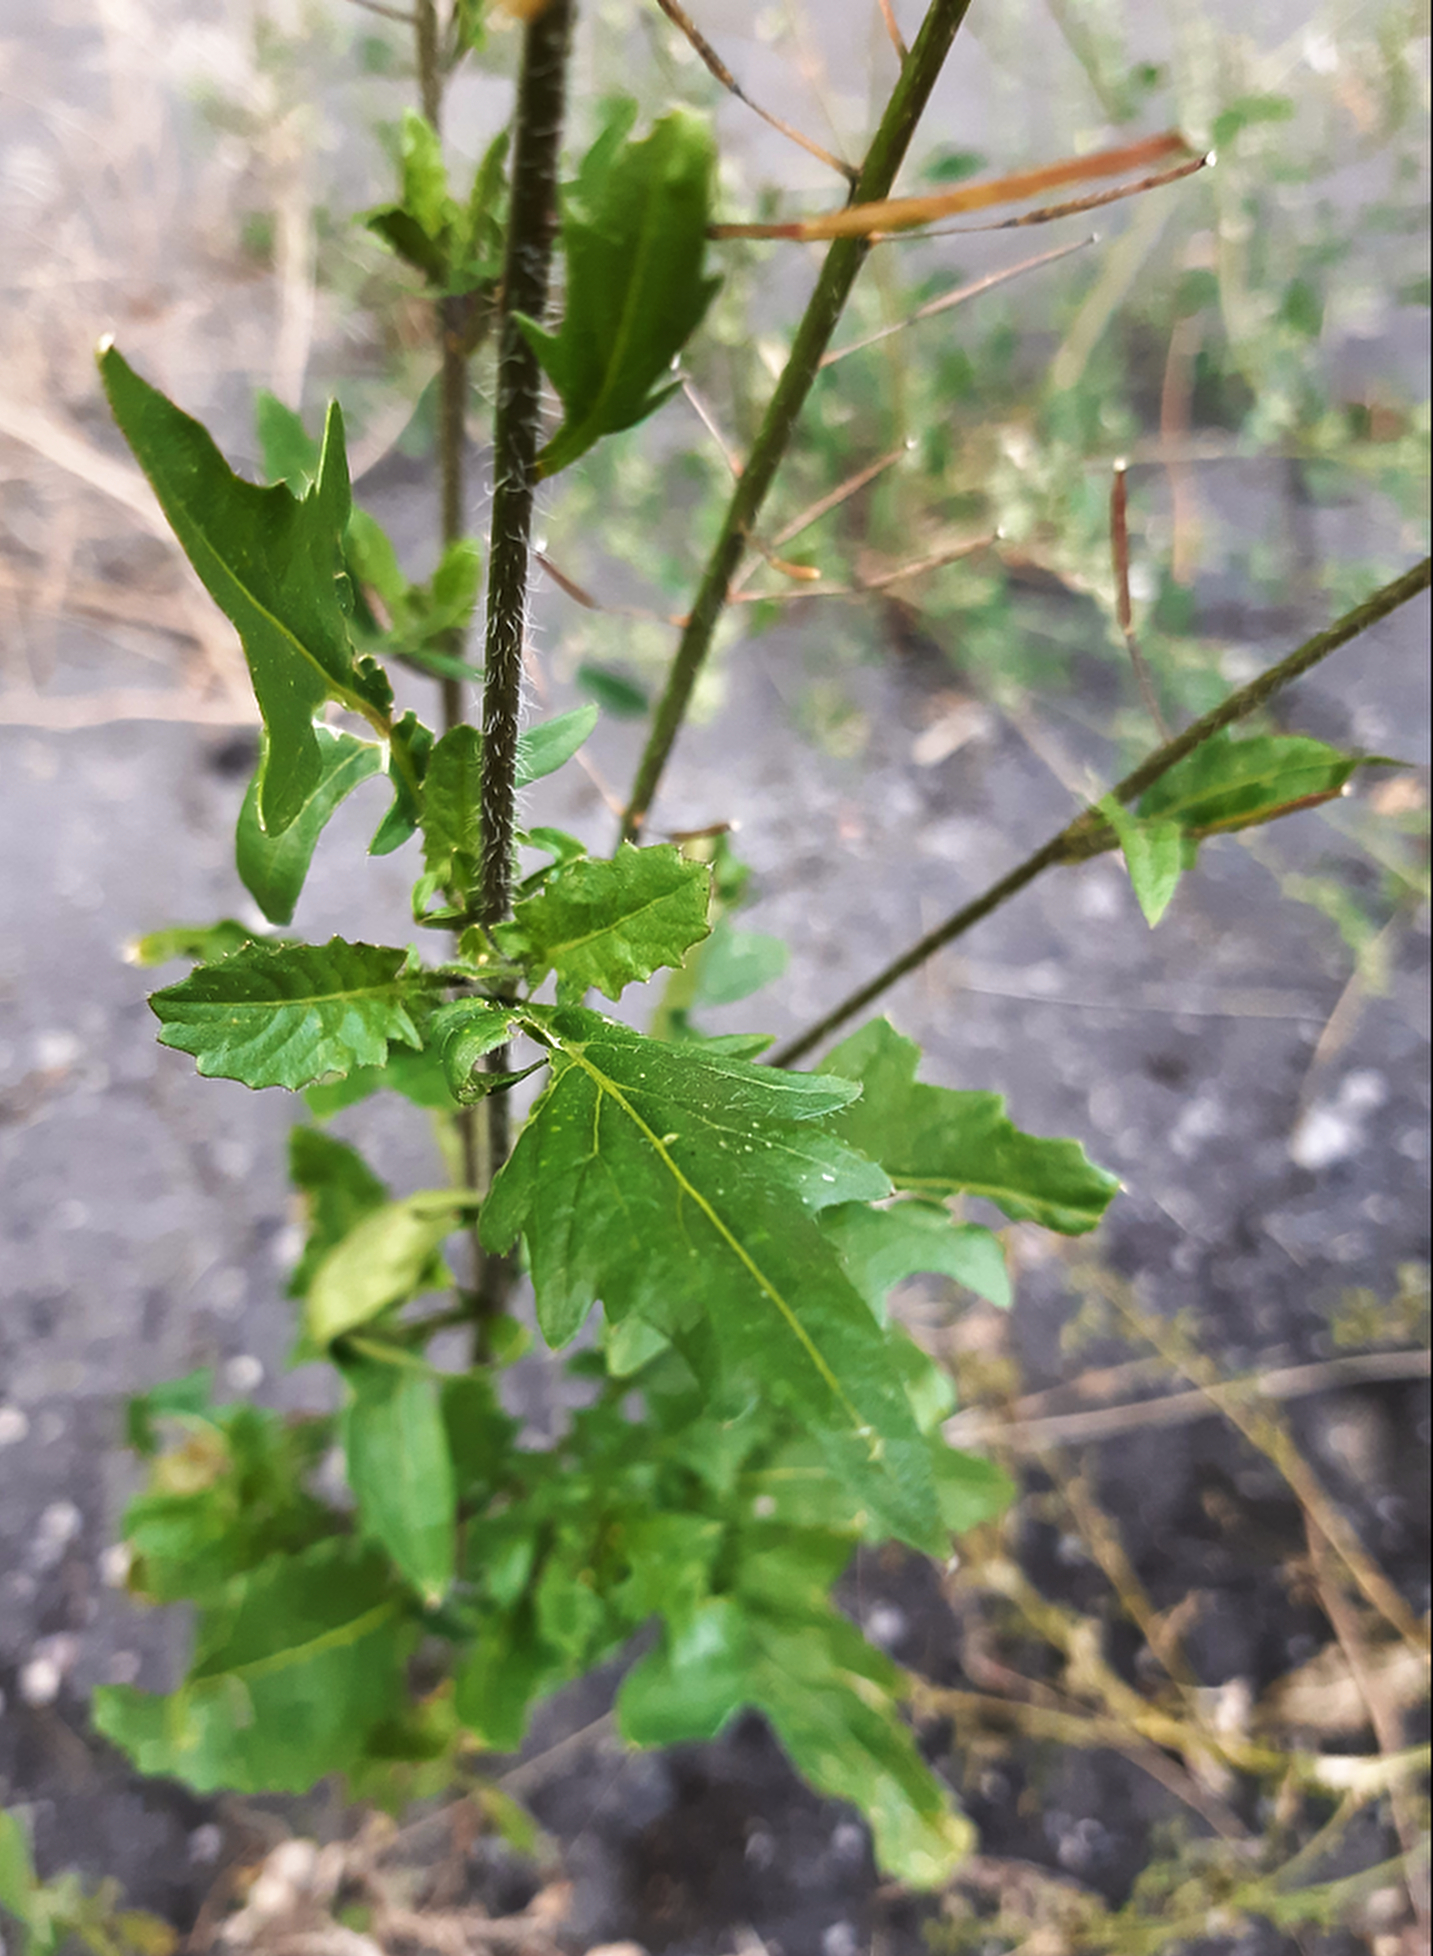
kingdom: Plantae
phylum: Tracheophyta
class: Magnoliopsida
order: Brassicales
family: Brassicaceae
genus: Sisymbrium
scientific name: Sisymbrium loeselii
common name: False london-rocket
